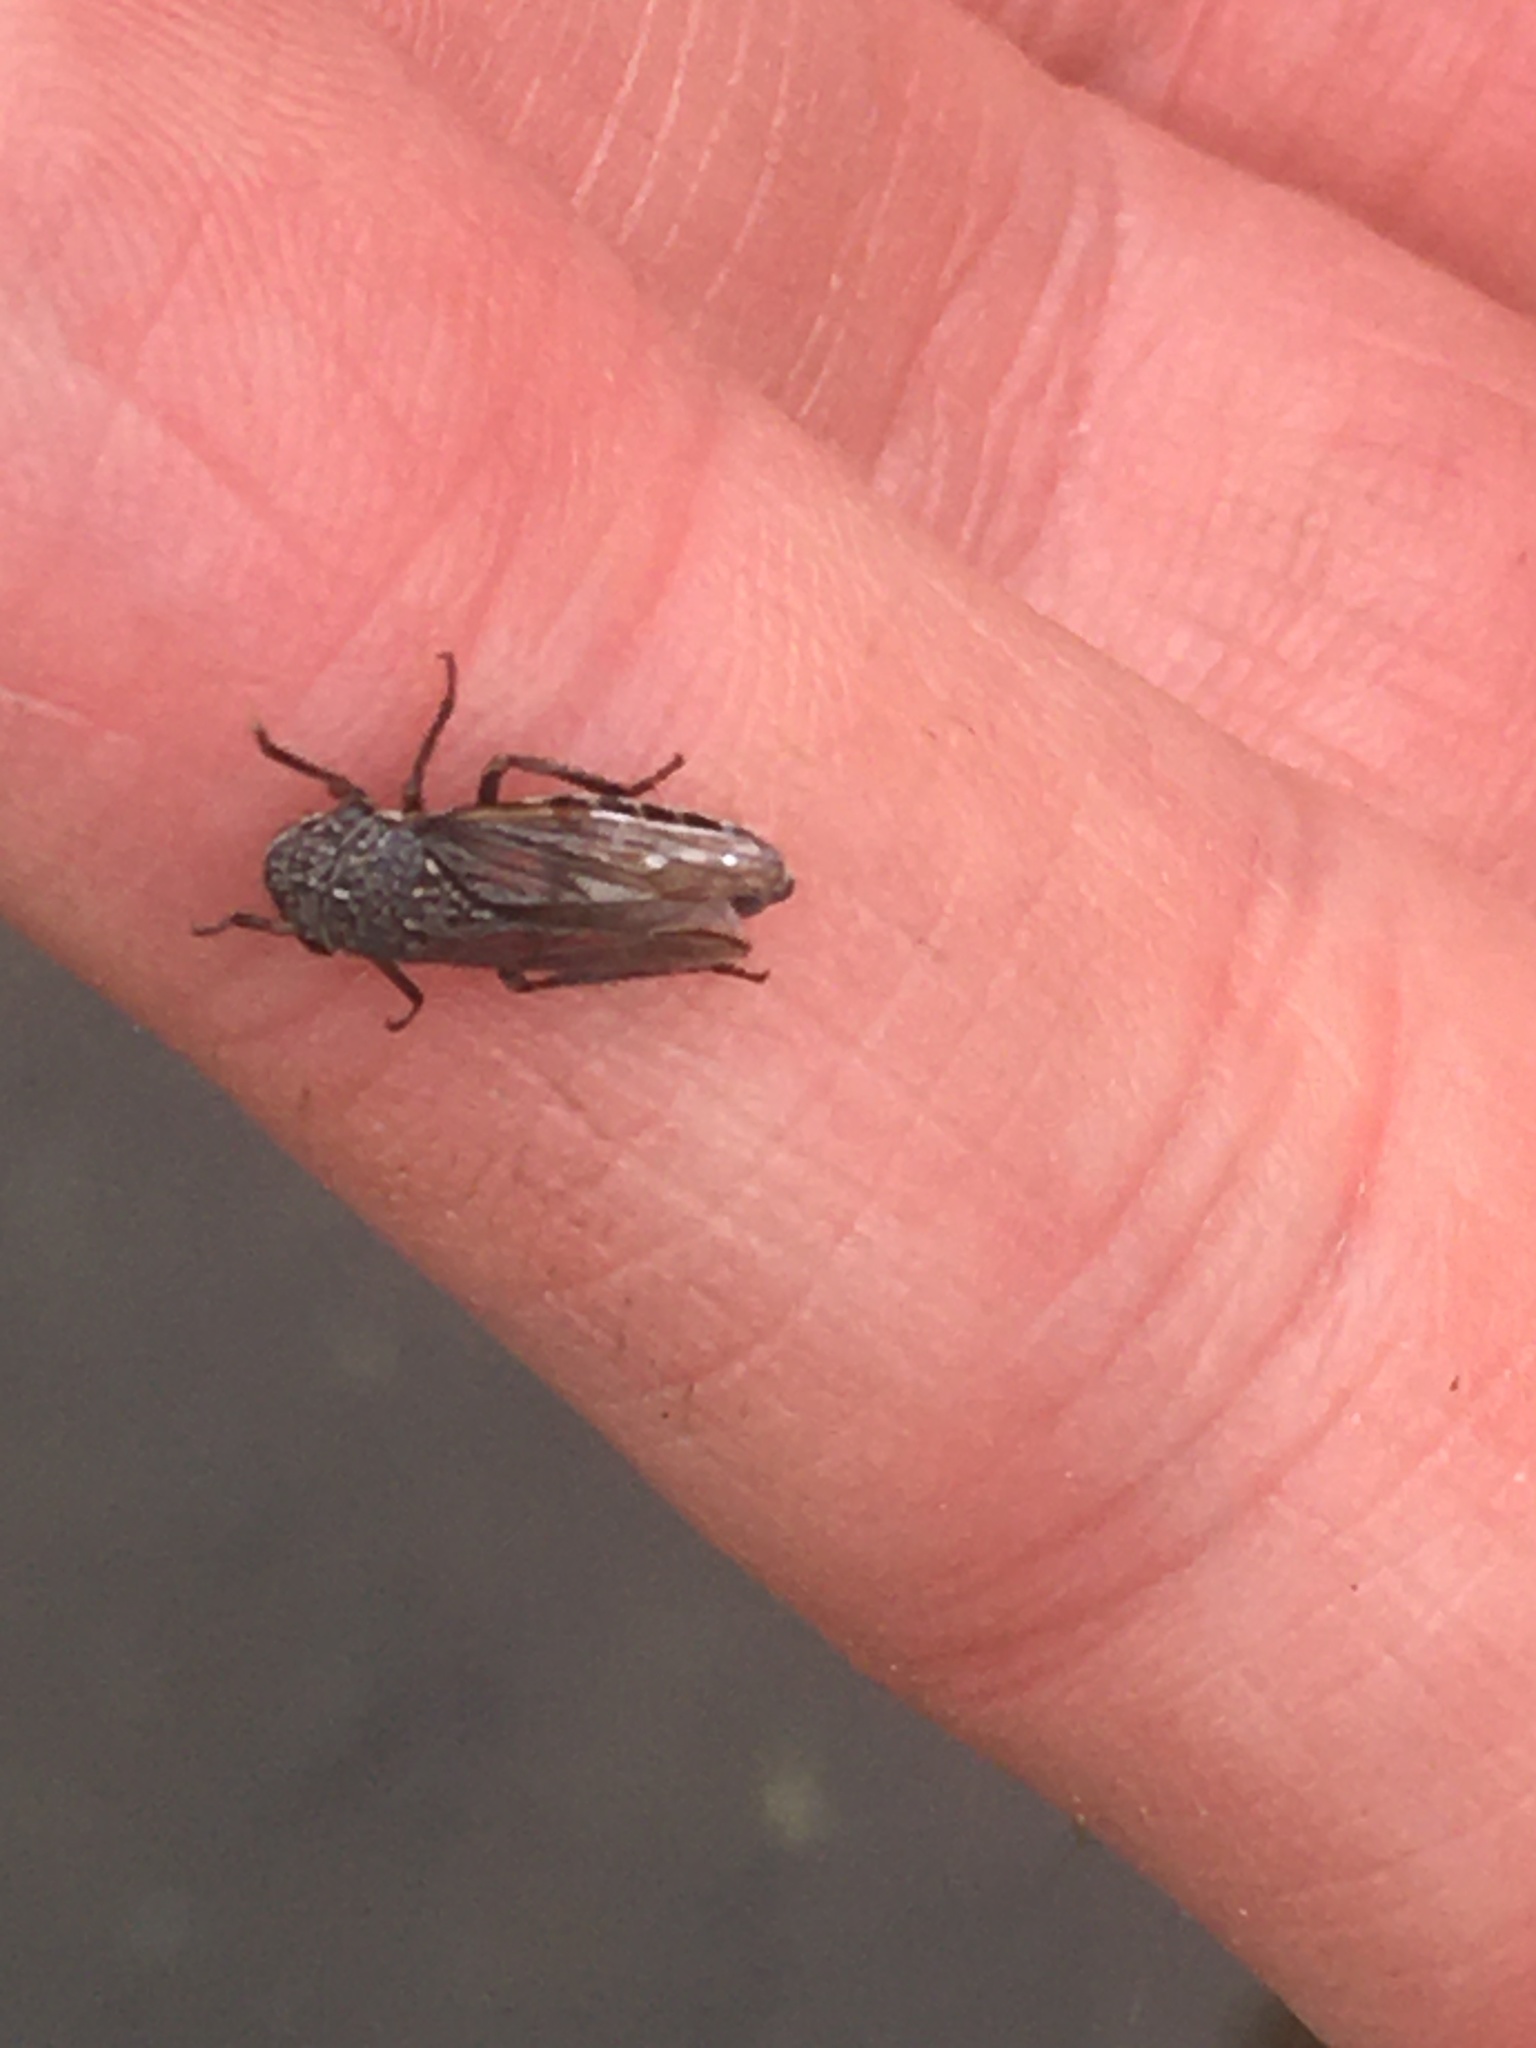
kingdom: Animalia
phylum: Arthropoda
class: Insecta
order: Hemiptera
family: Cicadellidae
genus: Cuerna
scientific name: Cuerna striata
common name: Striped leafhopper
